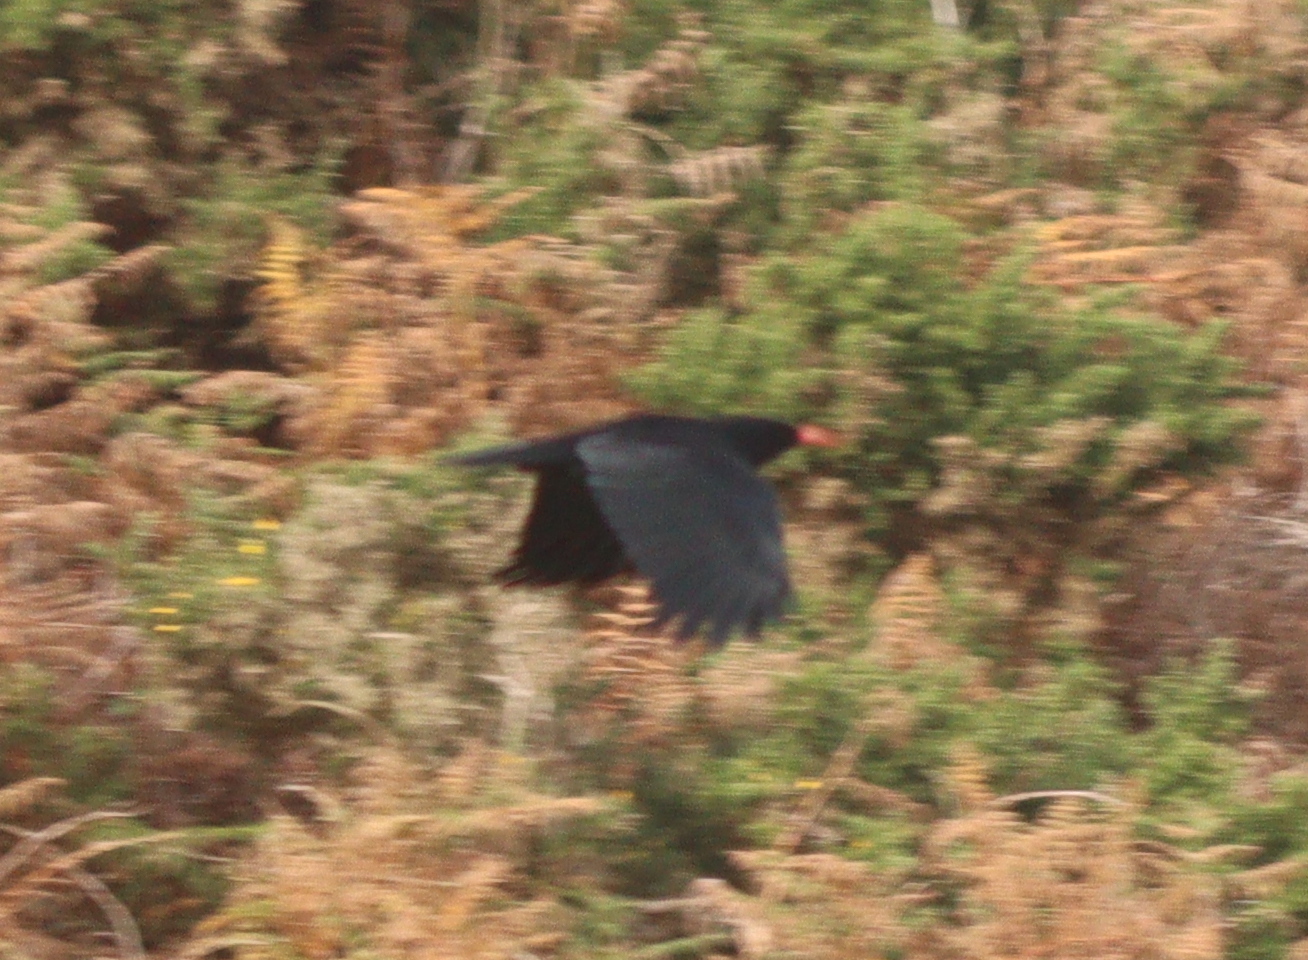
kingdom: Animalia
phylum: Chordata
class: Aves
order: Passeriformes
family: Corvidae
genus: Pyrrhocorax
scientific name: Pyrrhocorax pyrrhocorax
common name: Red-billed chough
